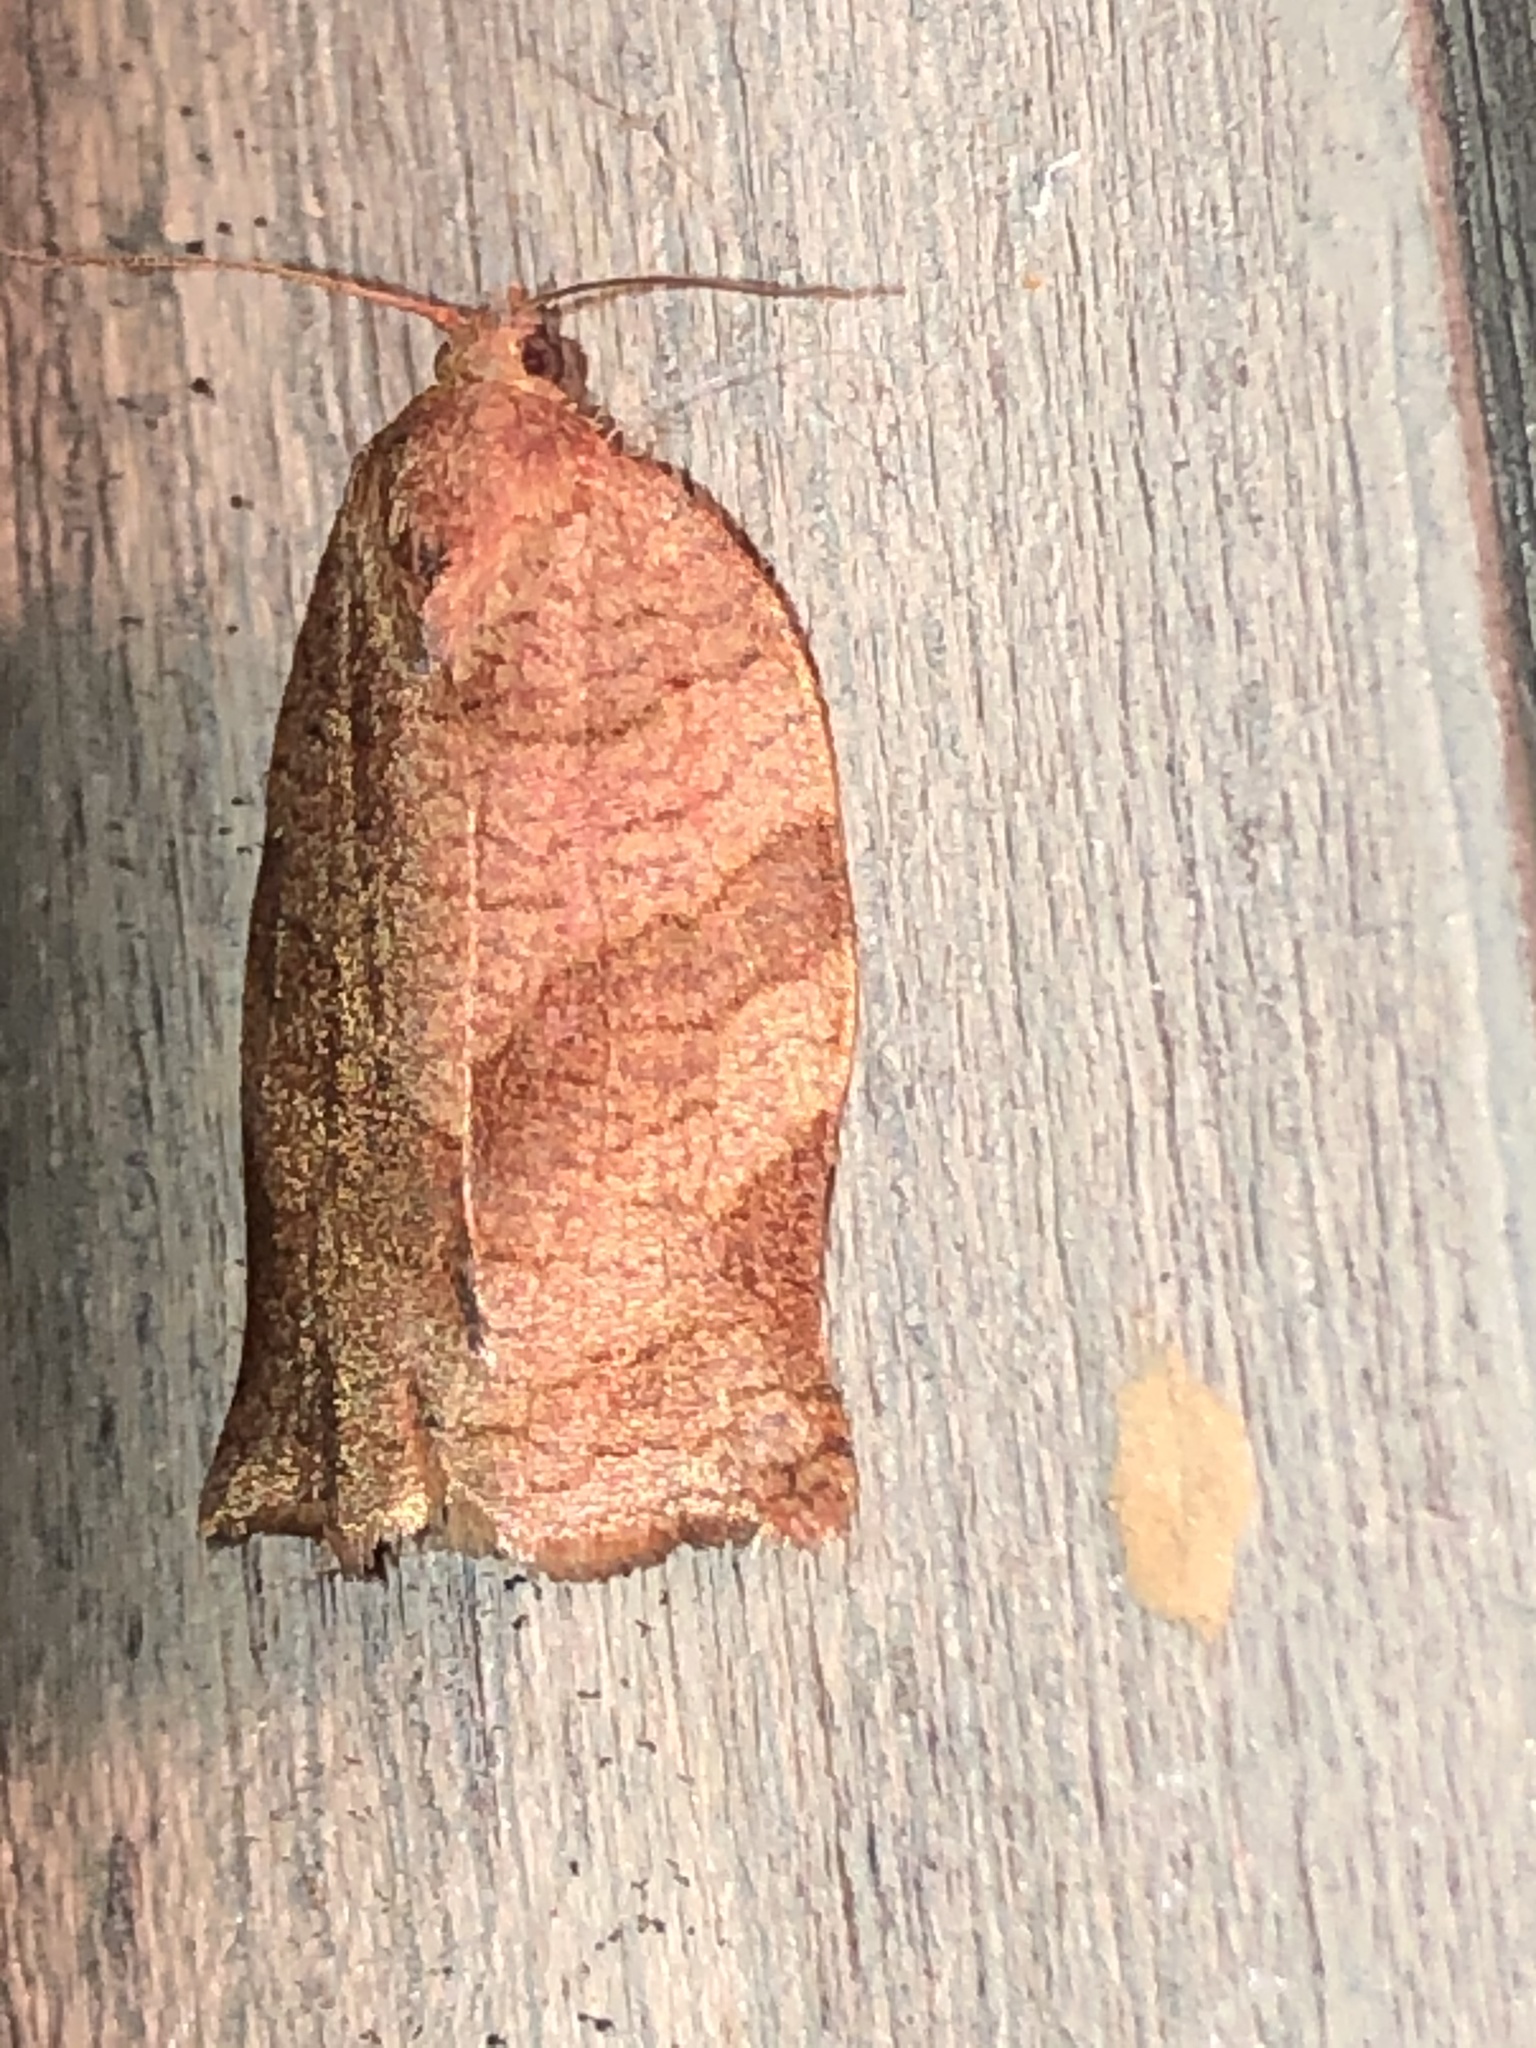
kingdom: Animalia
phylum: Arthropoda
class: Insecta
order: Lepidoptera
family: Tortricidae
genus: Choristoneura
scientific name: Choristoneura rosaceana
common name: Oblique-banded leafroller moth
